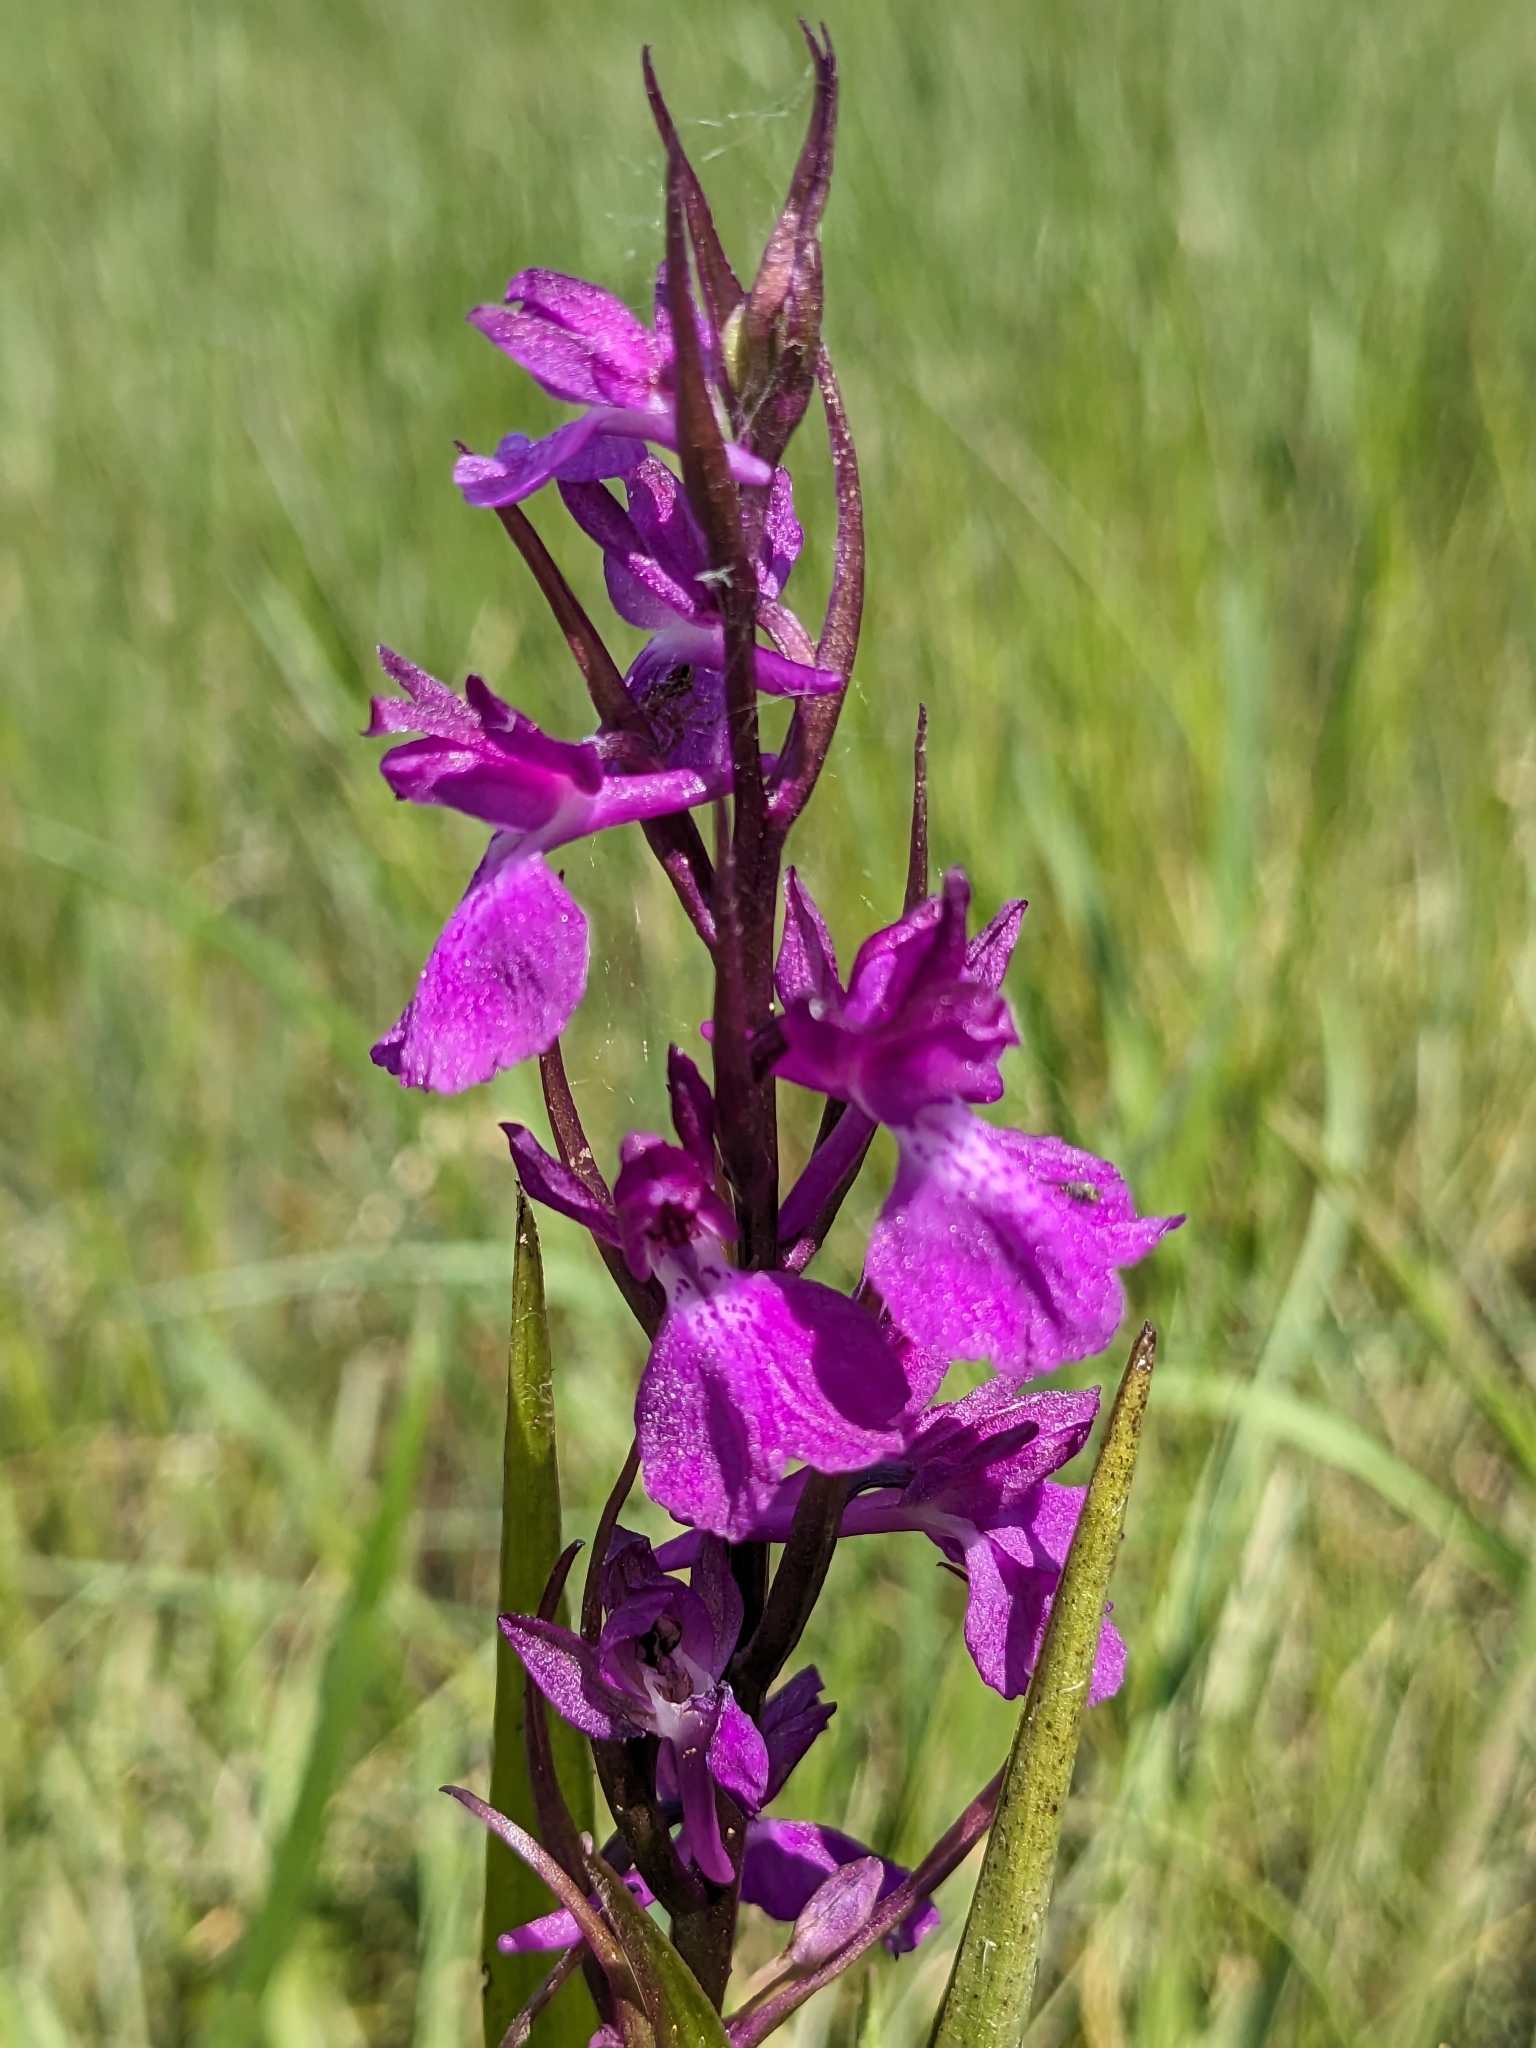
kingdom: Plantae
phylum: Tracheophyta
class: Liliopsida
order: Asparagales
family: Orchidaceae
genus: Anacamptis
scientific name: Anacamptis palustris
